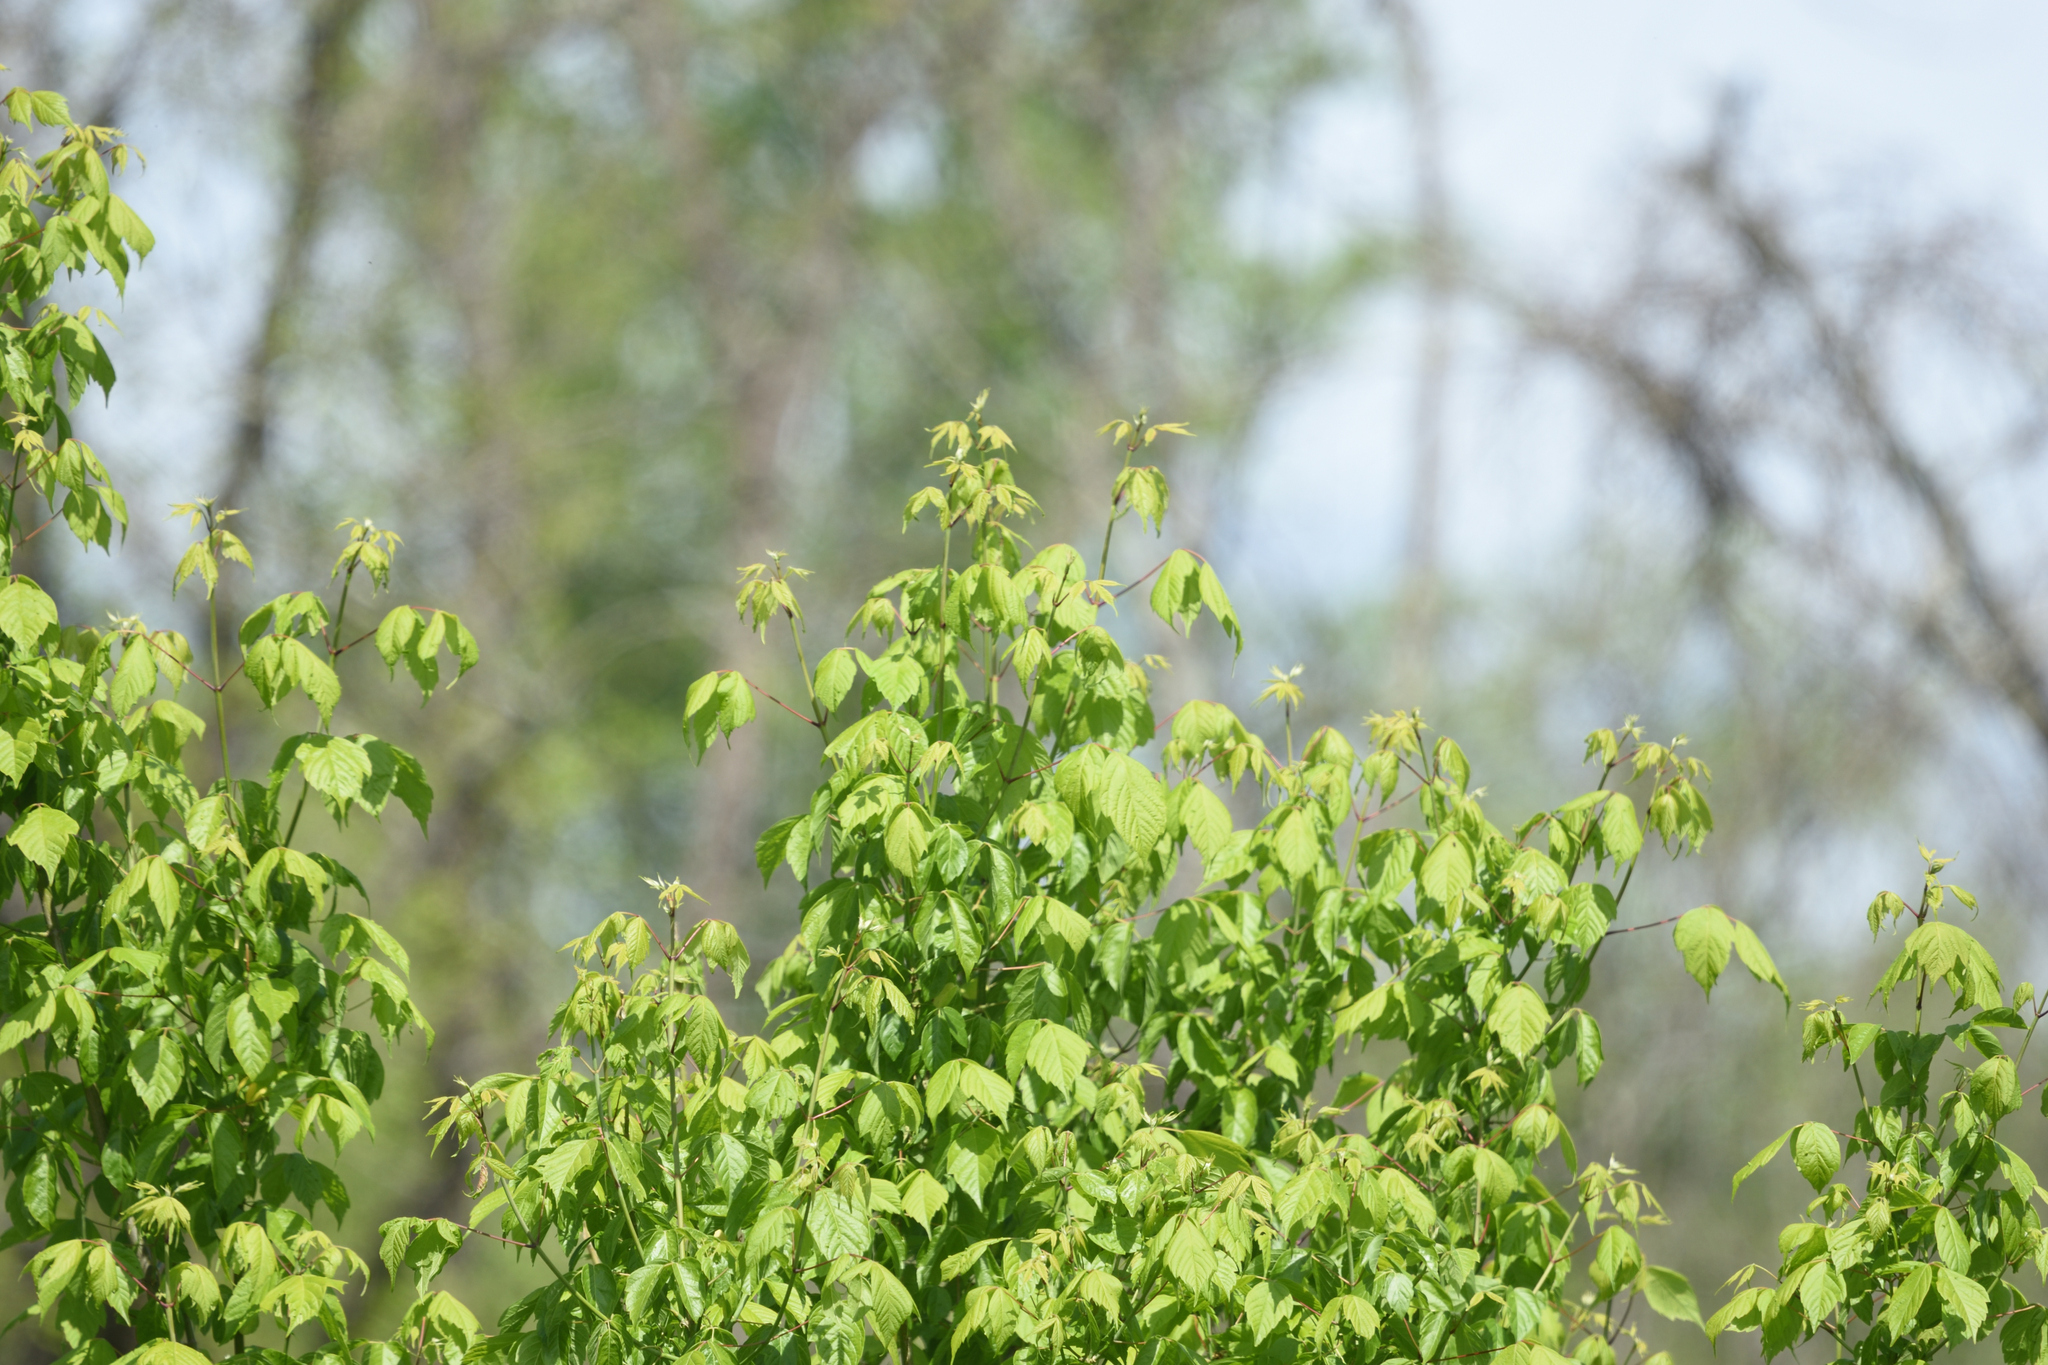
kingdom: Plantae
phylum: Tracheophyta
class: Magnoliopsida
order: Sapindales
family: Sapindaceae
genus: Acer
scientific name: Acer negundo
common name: Ashleaf maple
